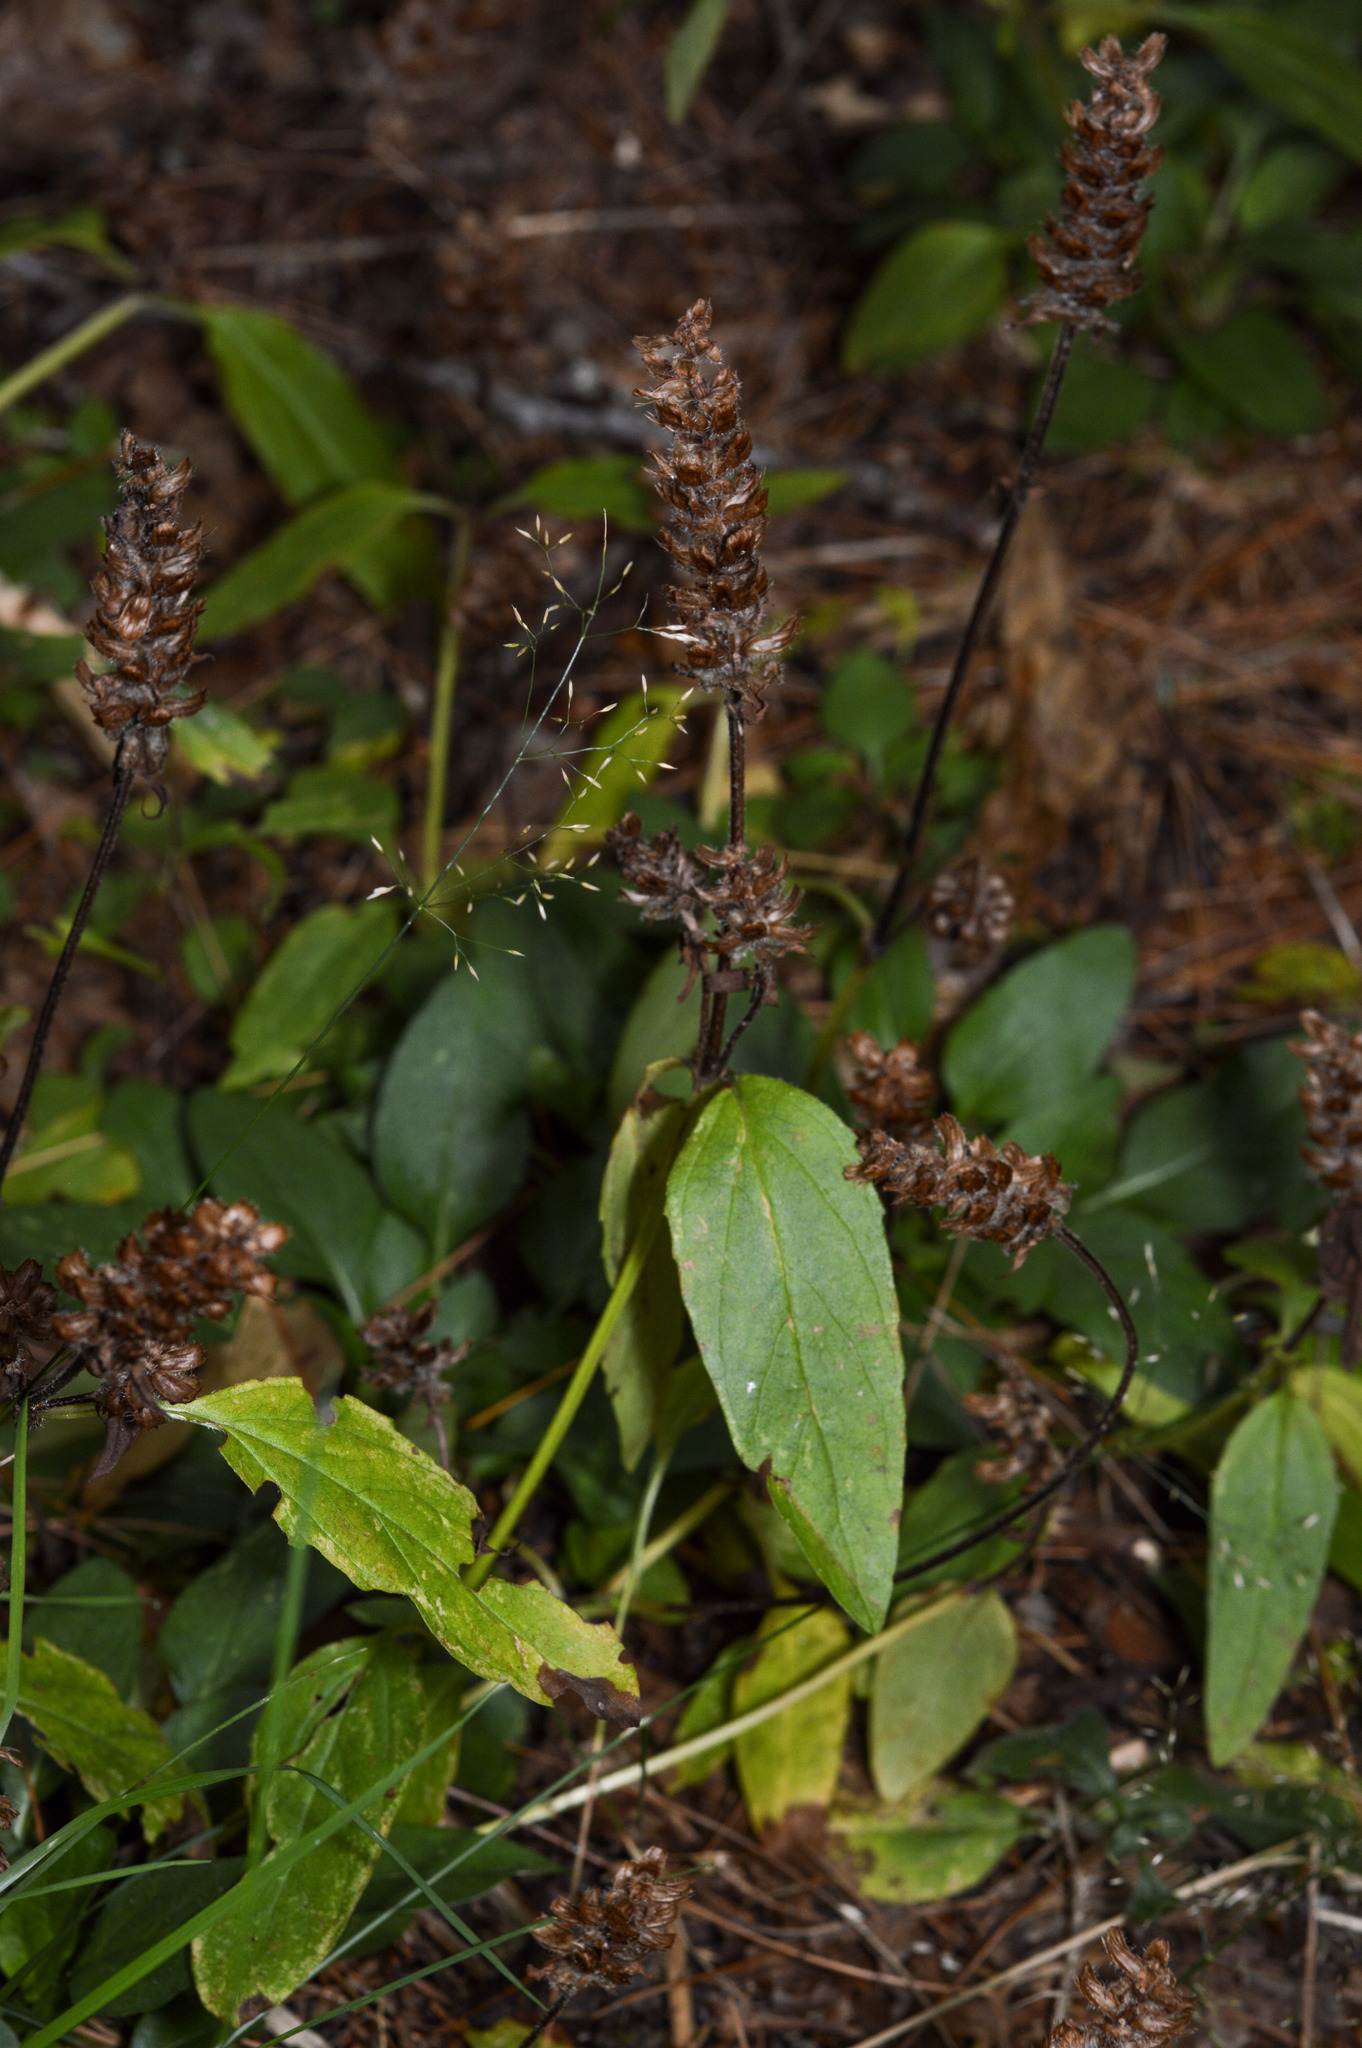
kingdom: Plantae
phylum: Tracheophyta
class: Magnoliopsida
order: Lamiales
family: Lamiaceae
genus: Prunella
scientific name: Prunella vulgaris
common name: Heal-all
